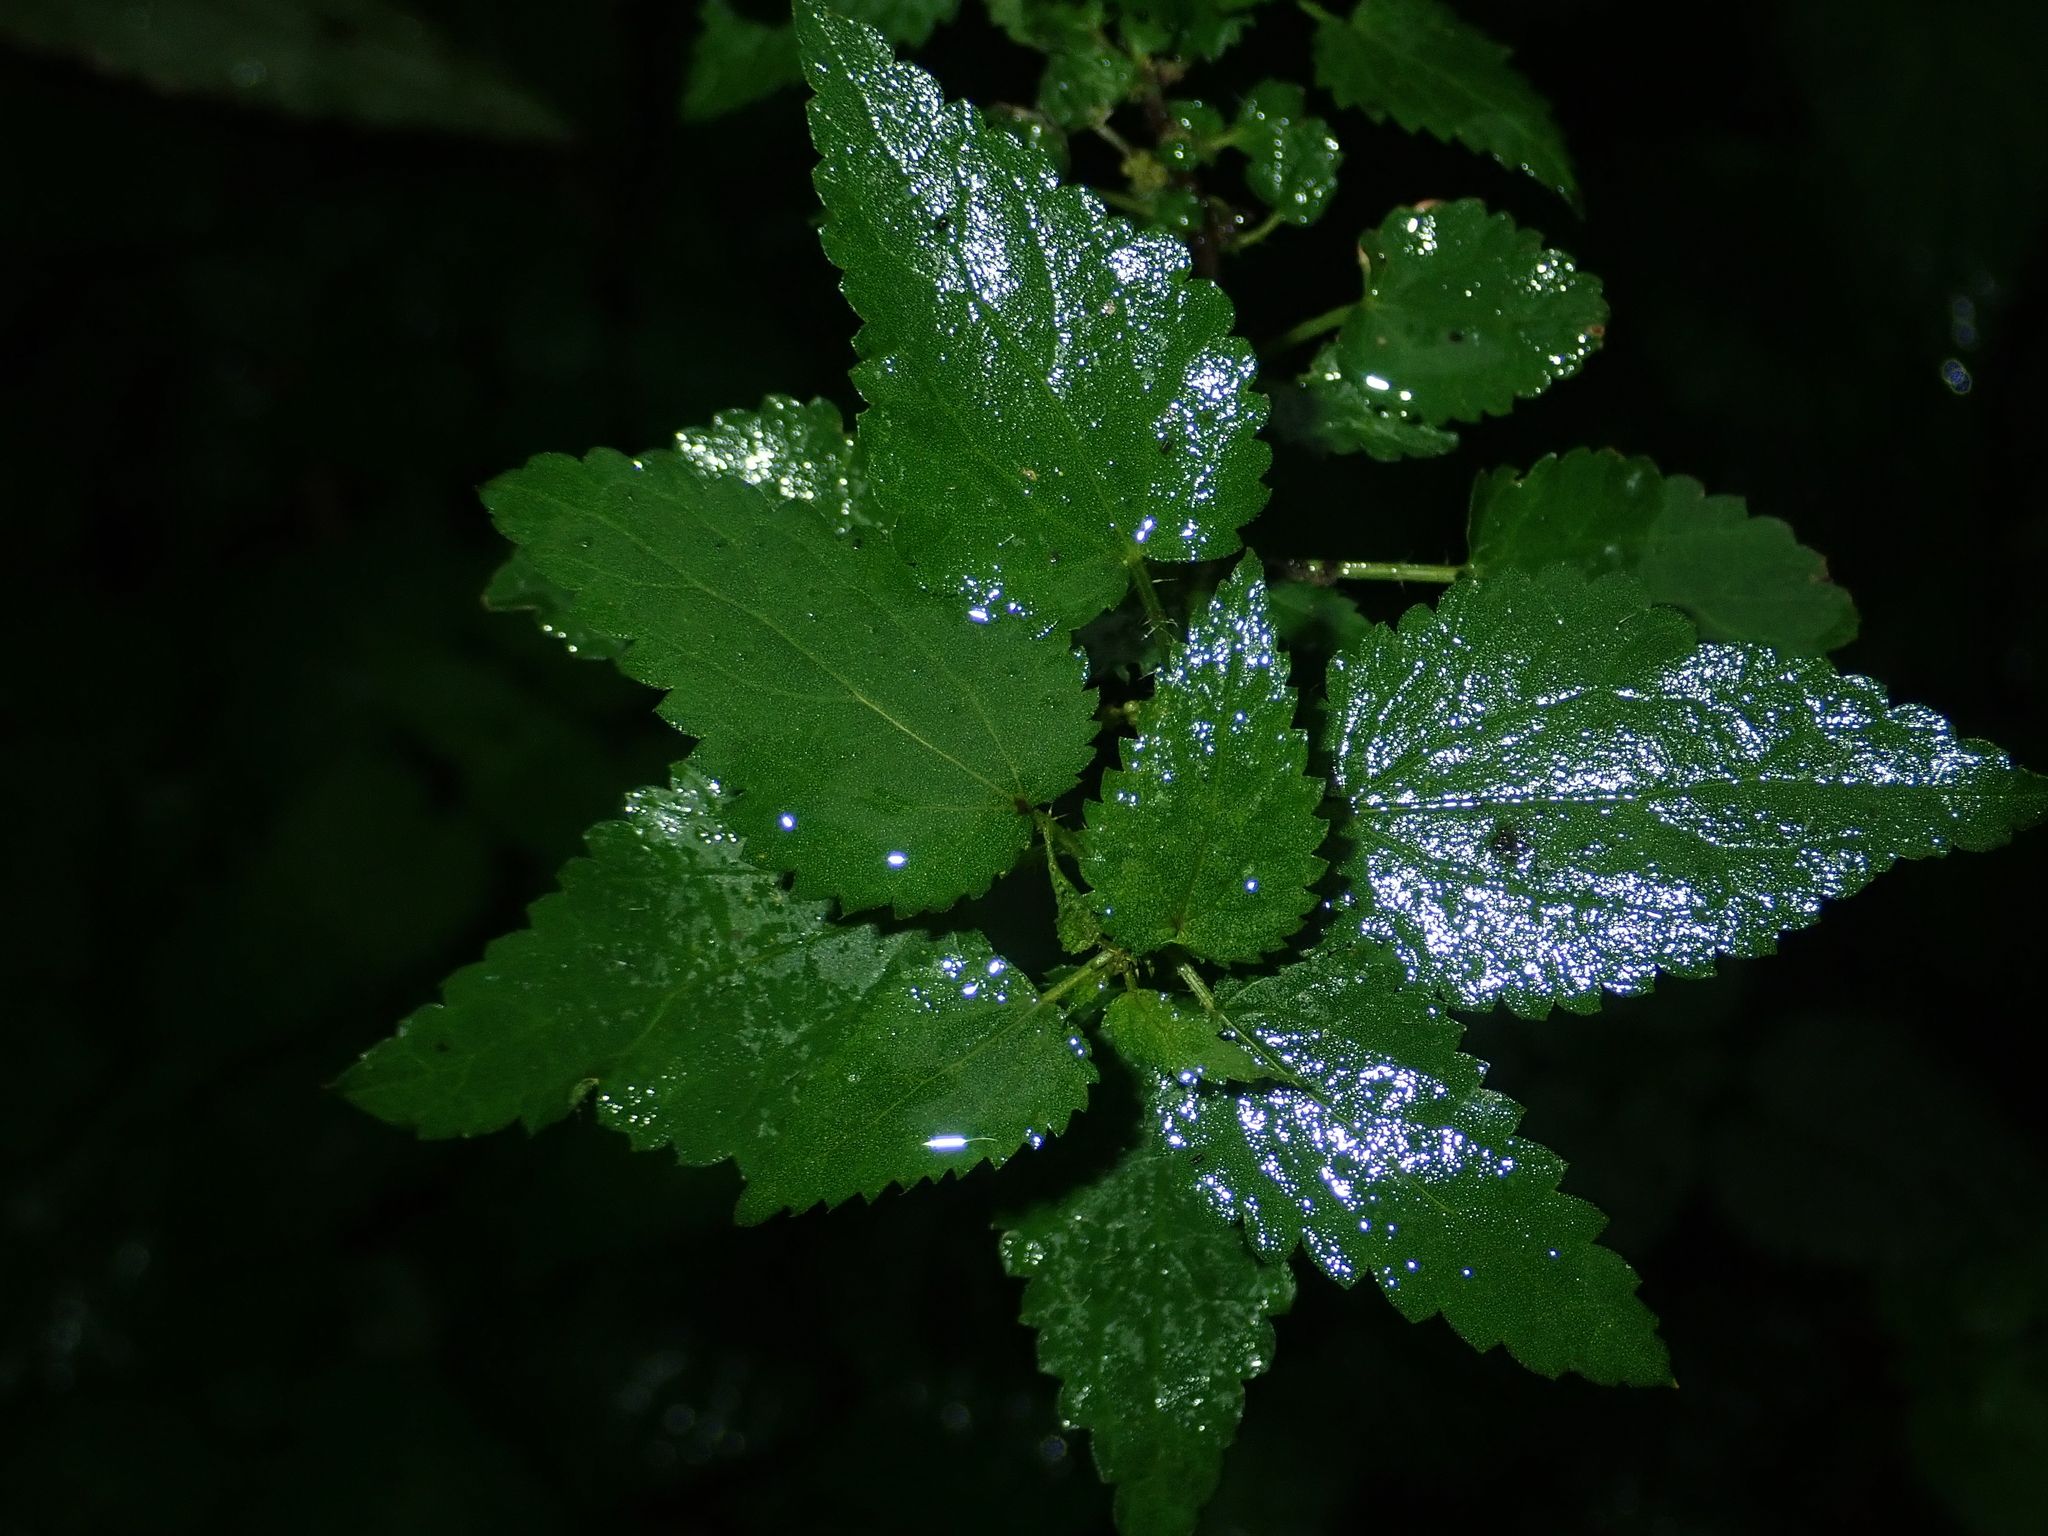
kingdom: Plantae
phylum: Tracheophyta
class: Magnoliopsida
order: Rosales
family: Urticaceae
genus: Urtica
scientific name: Urtica dioica
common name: Common nettle
